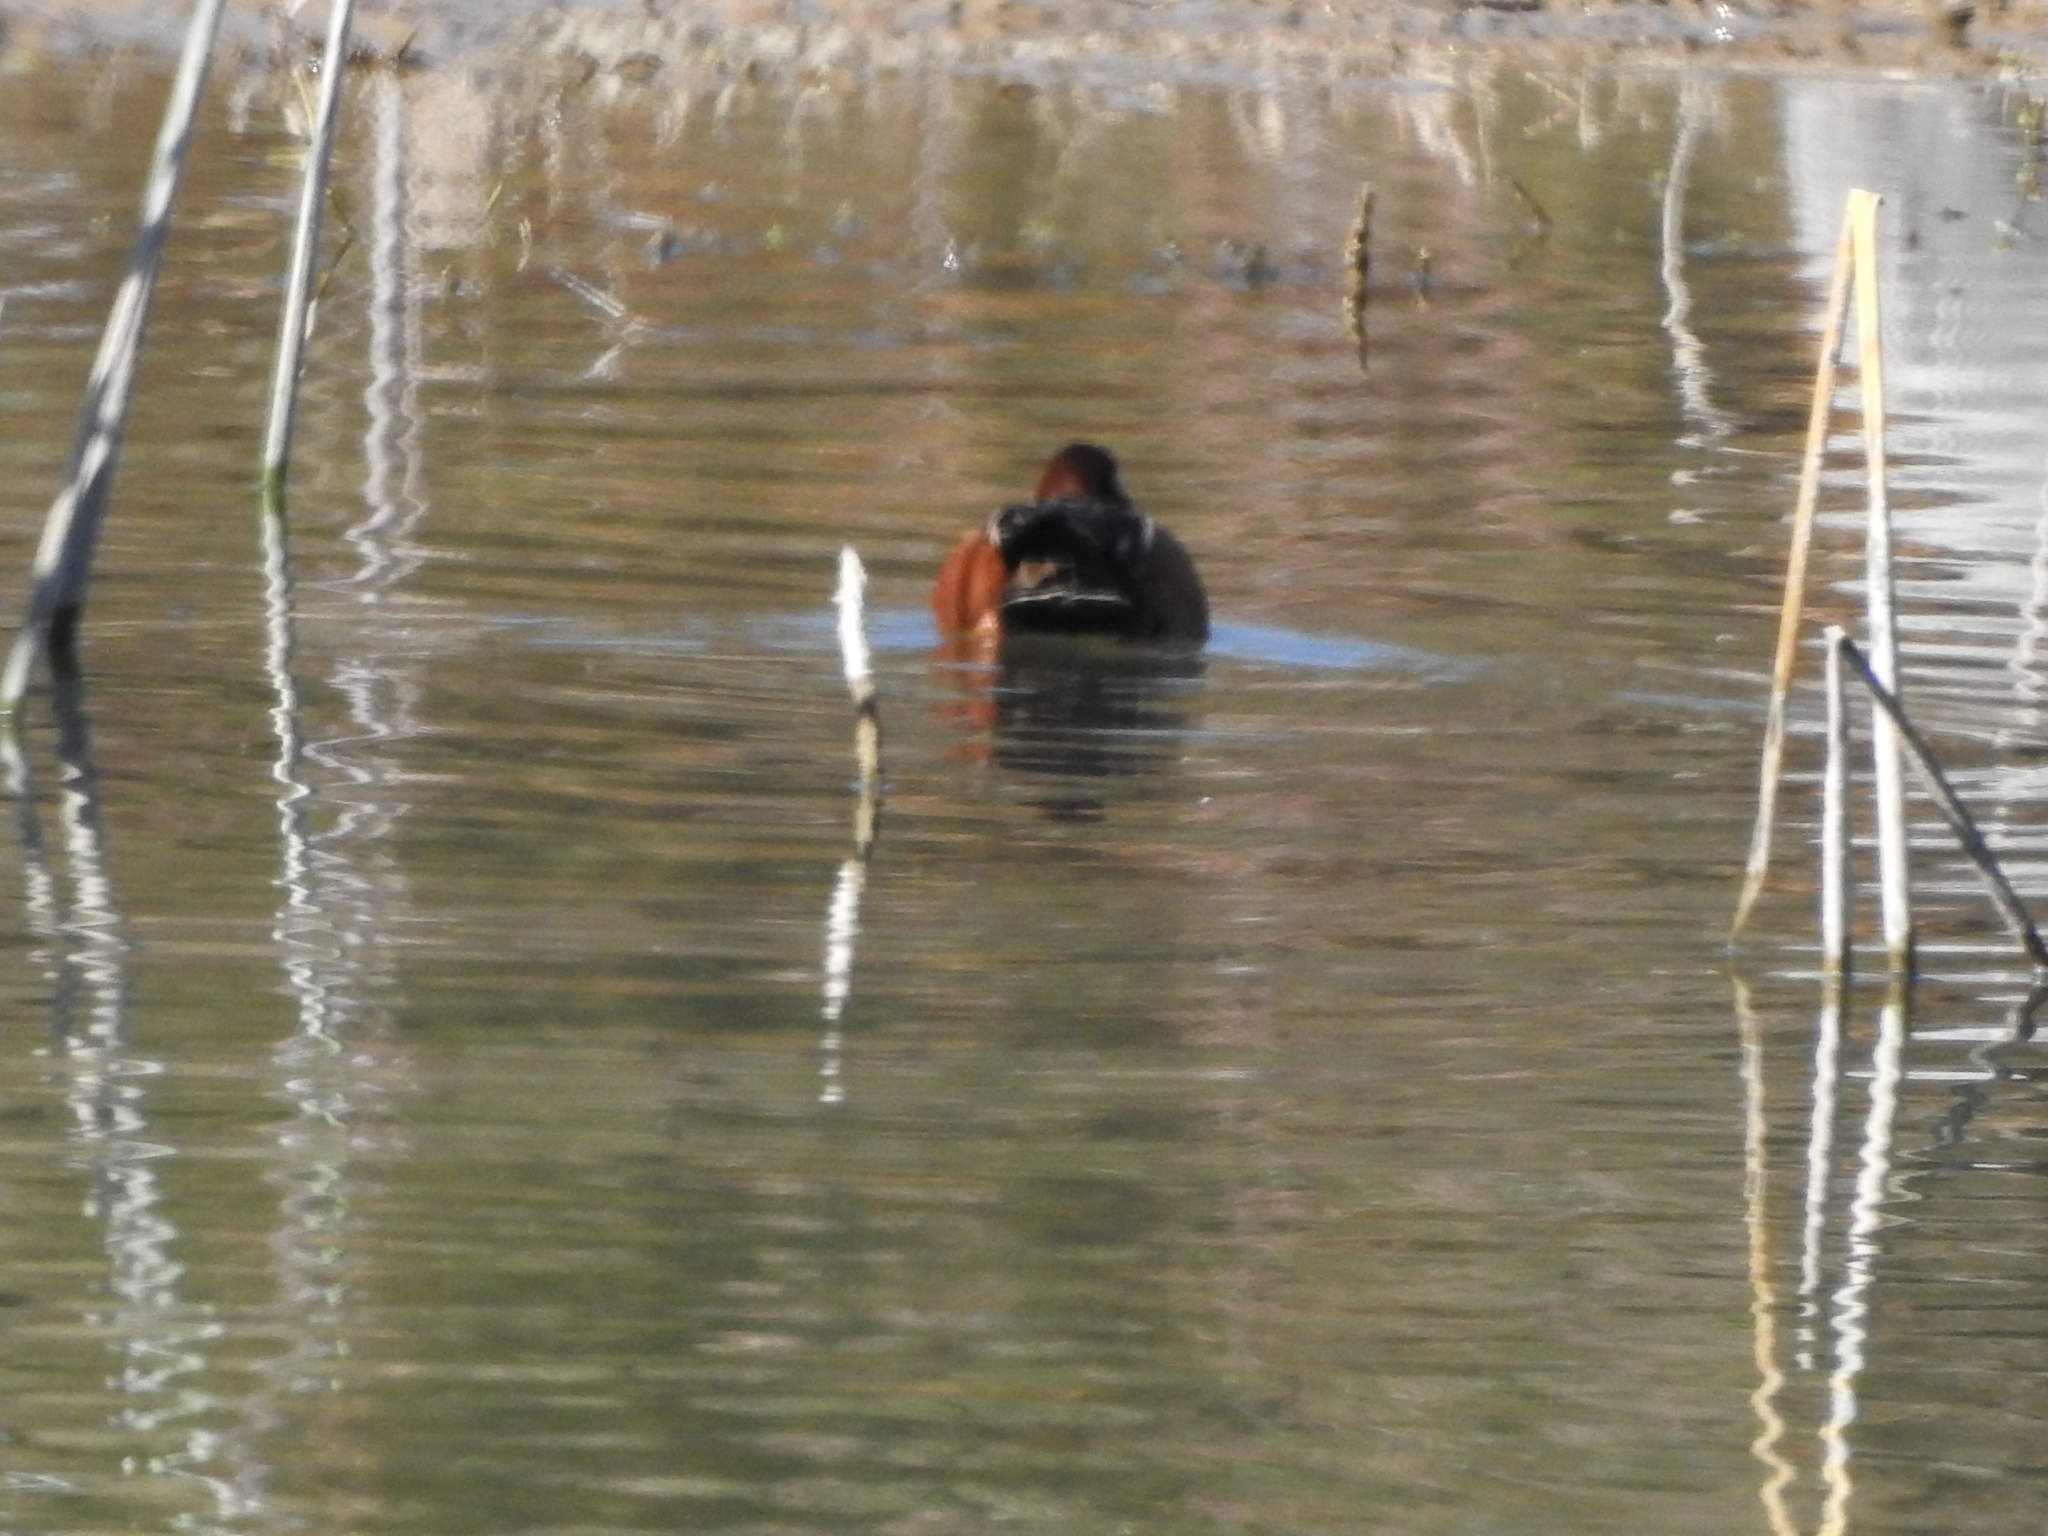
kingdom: Animalia
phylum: Chordata
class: Aves
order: Anseriformes
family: Anatidae
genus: Spatula
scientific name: Spatula cyanoptera
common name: Cinnamon teal
